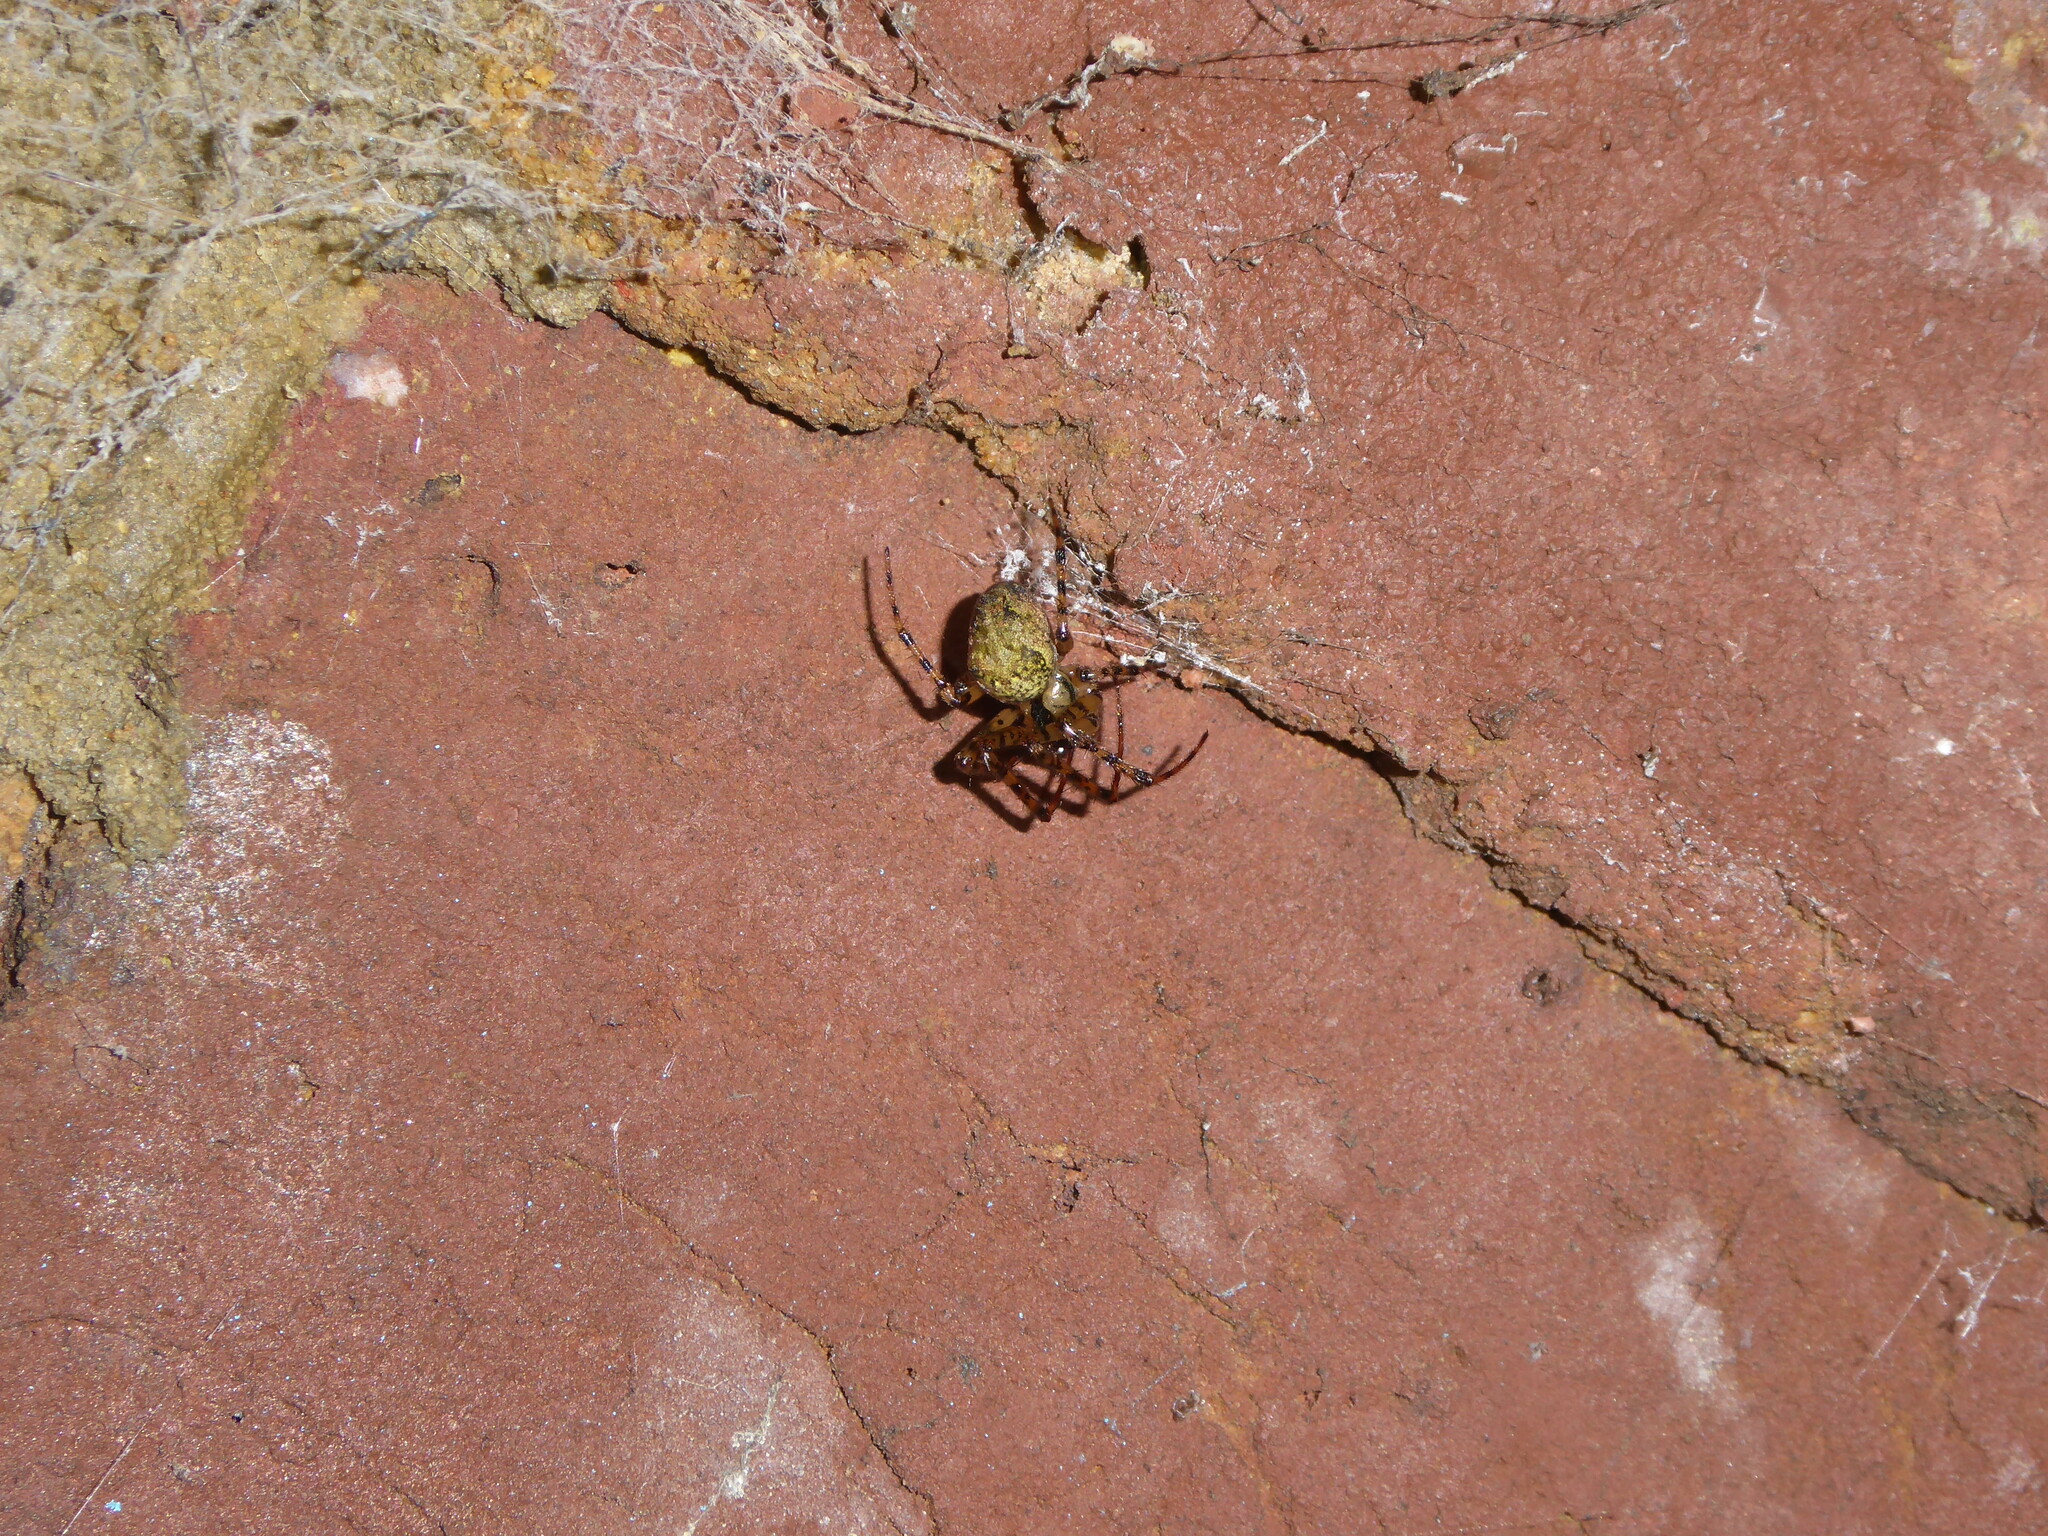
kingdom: Animalia
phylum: Arthropoda
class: Arachnida
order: Araneae
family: Tetragnathidae
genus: Metellina
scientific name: Metellina merianae
